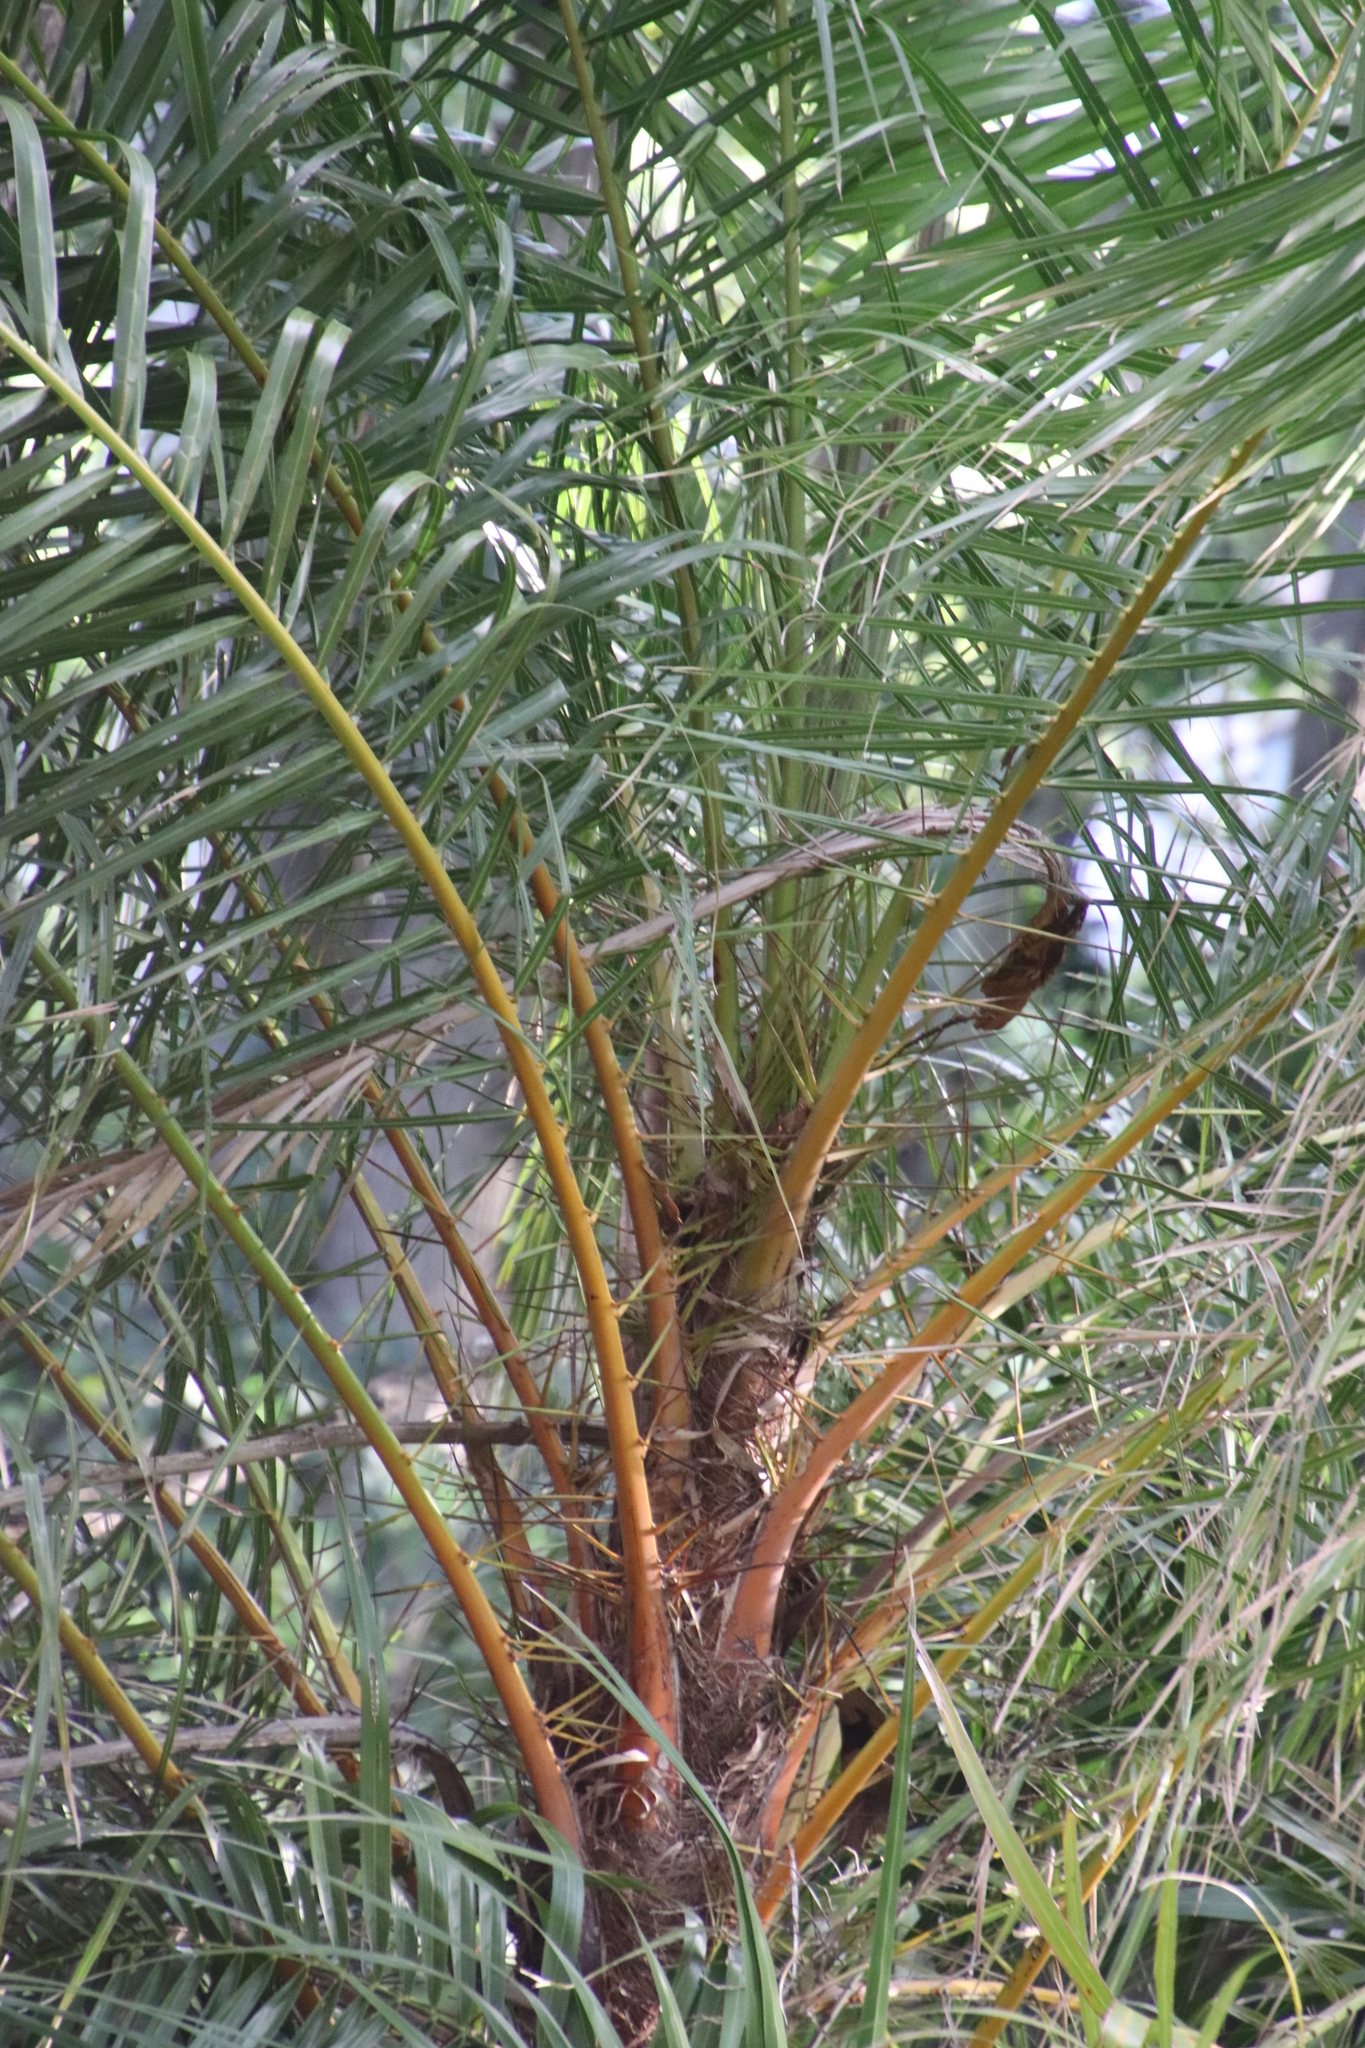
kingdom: Plantae
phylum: Tracheophyta
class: Liliopsida
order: Arecales
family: Arecaceae
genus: Phoenix
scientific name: Phoenix reclinata
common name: Senegal date palm
